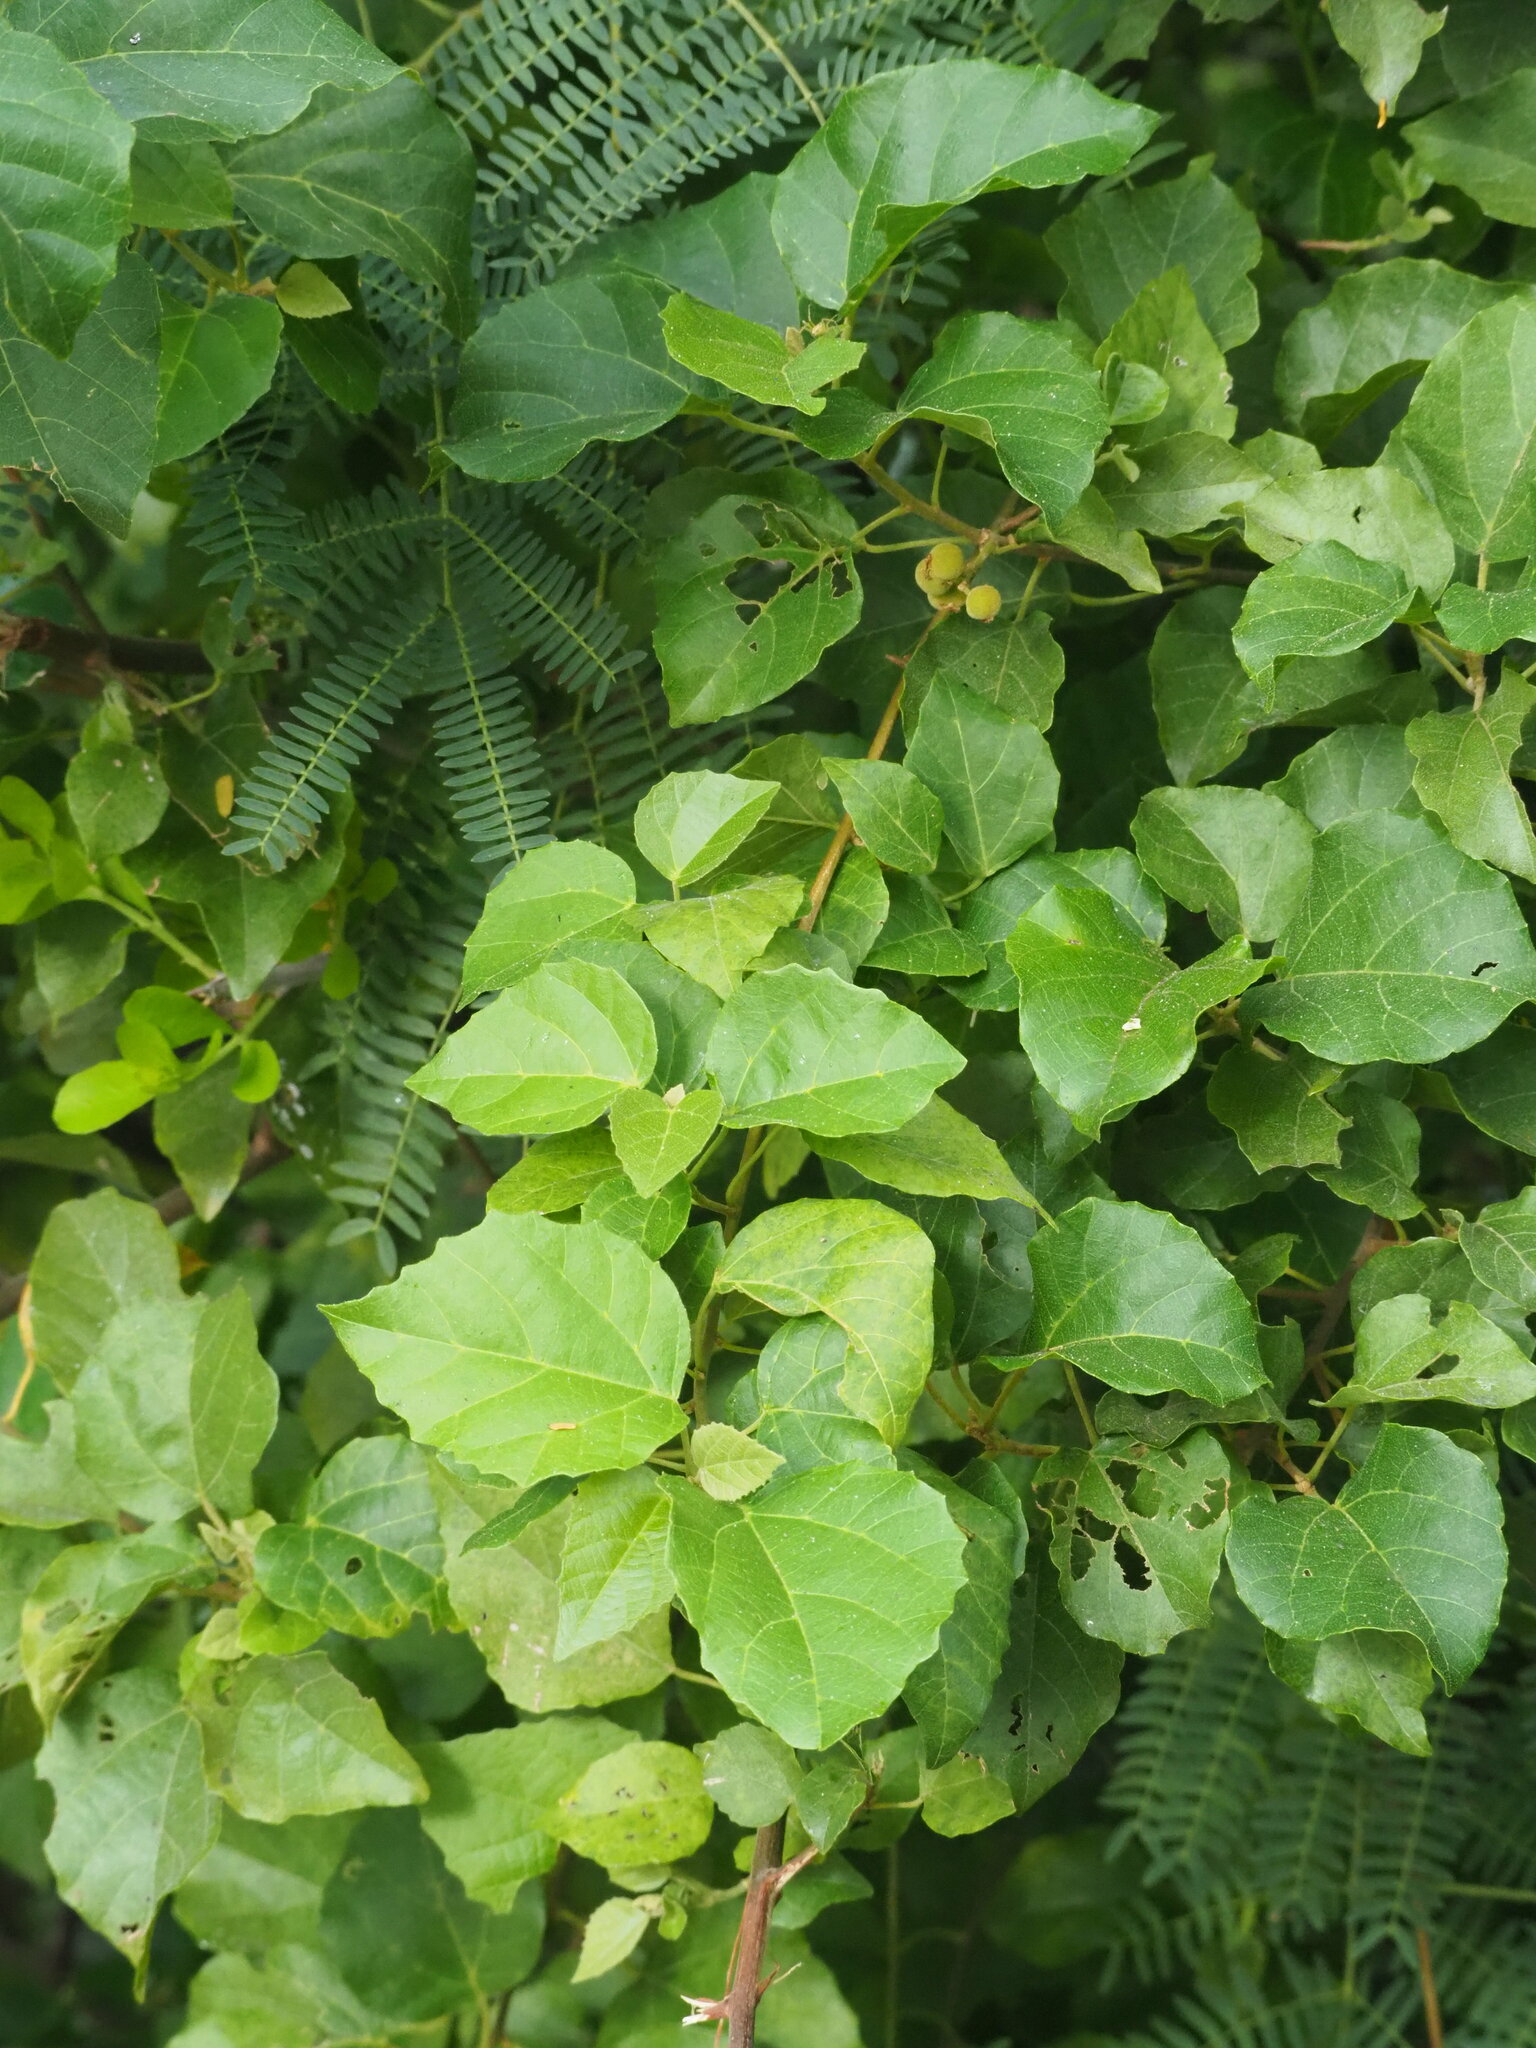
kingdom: Plantae
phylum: Tracheophyta
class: Magnoliopsida
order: Malpighiales
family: Euphorbiaceae
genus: Mallotus
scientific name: Mallotus repandus
